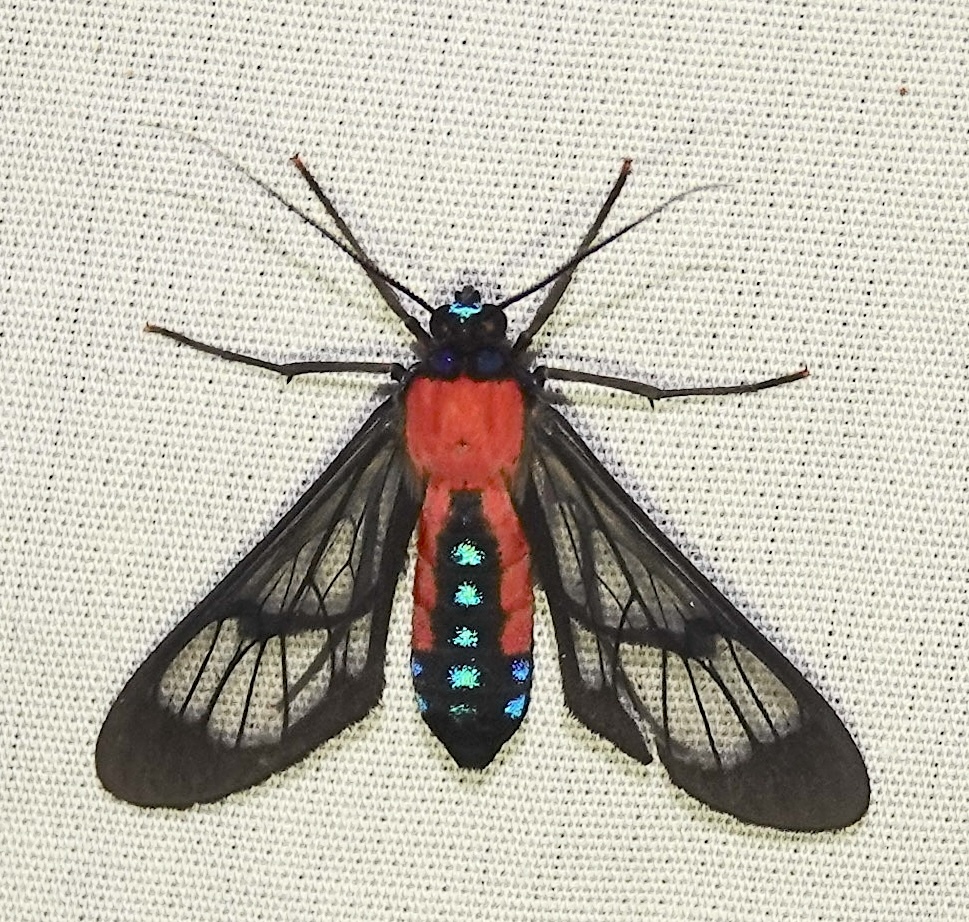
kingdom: Animalia
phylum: Arthropoda
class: Insecta
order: Lepidoptera
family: Erebidae
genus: Cosmosoma
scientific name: Cosmosoma oroyana
